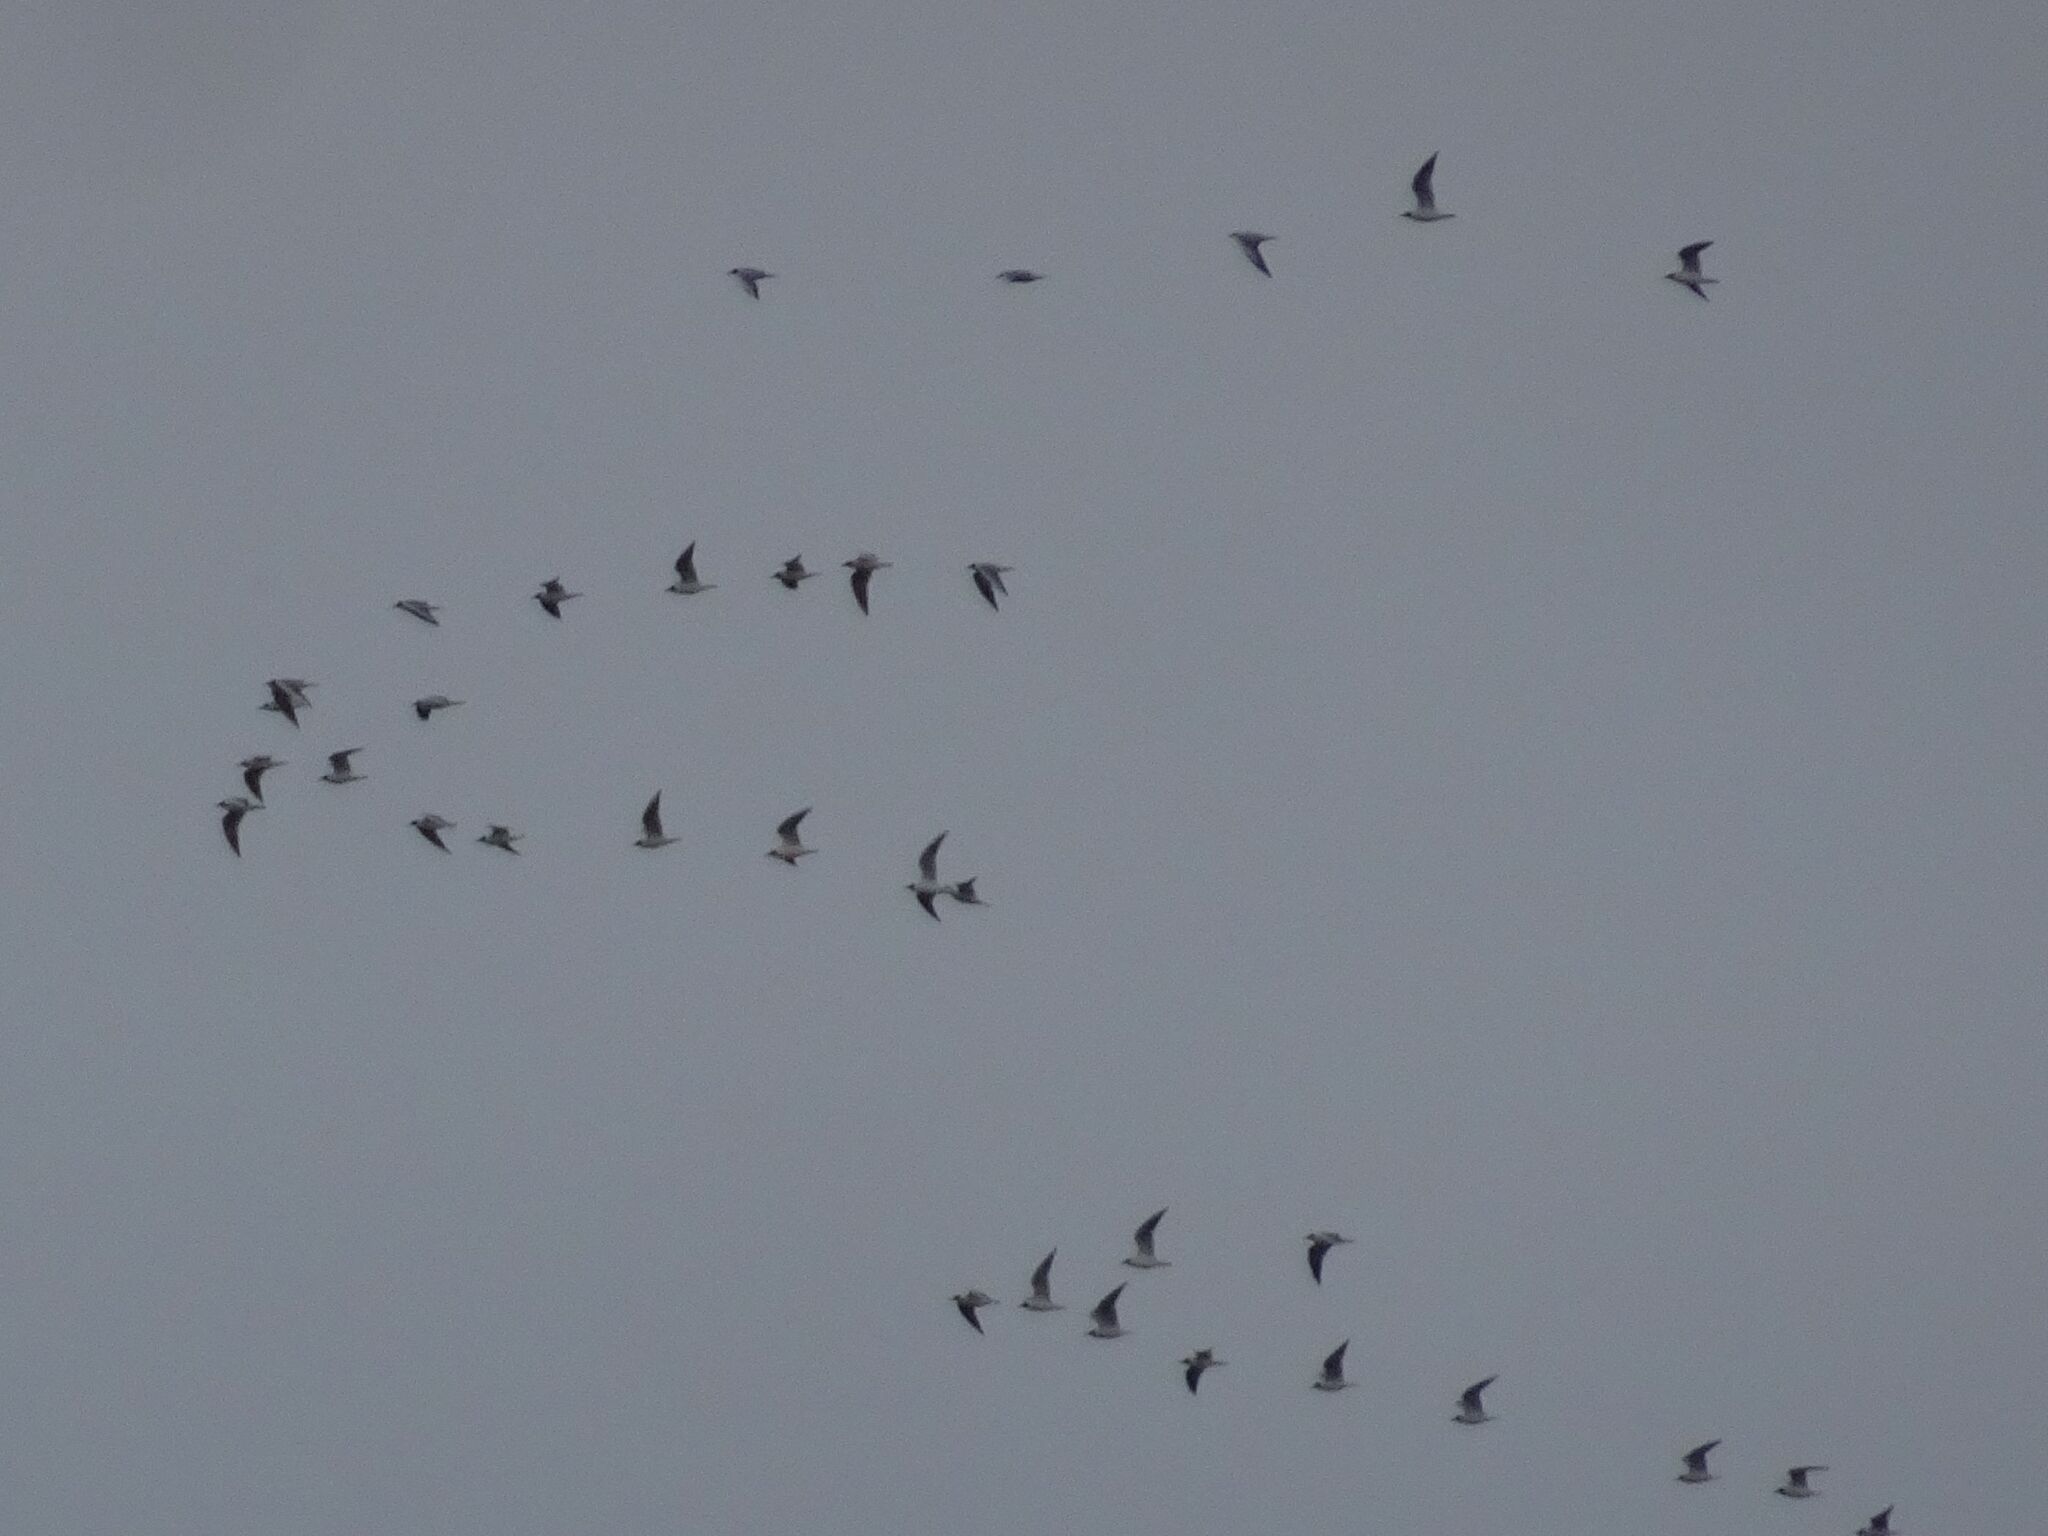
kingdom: Animalia
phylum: Chordata
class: Aves
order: Charadriiformes
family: Laridae
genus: Chroicocephalus
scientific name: Chroicocephalus ridibundus
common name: Black-headed gull
